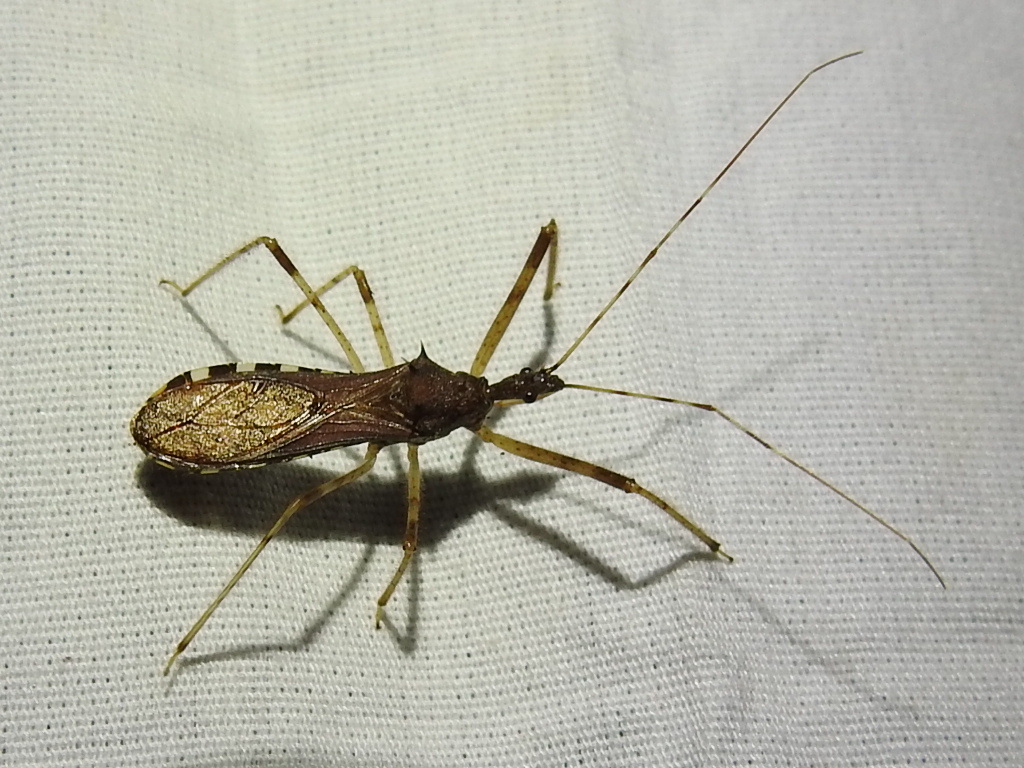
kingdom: Animalia
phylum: Arthropoda
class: Insecta
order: Hemiptera
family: Reduviidae
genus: Rocconota
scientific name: Rocconota annulicornis
